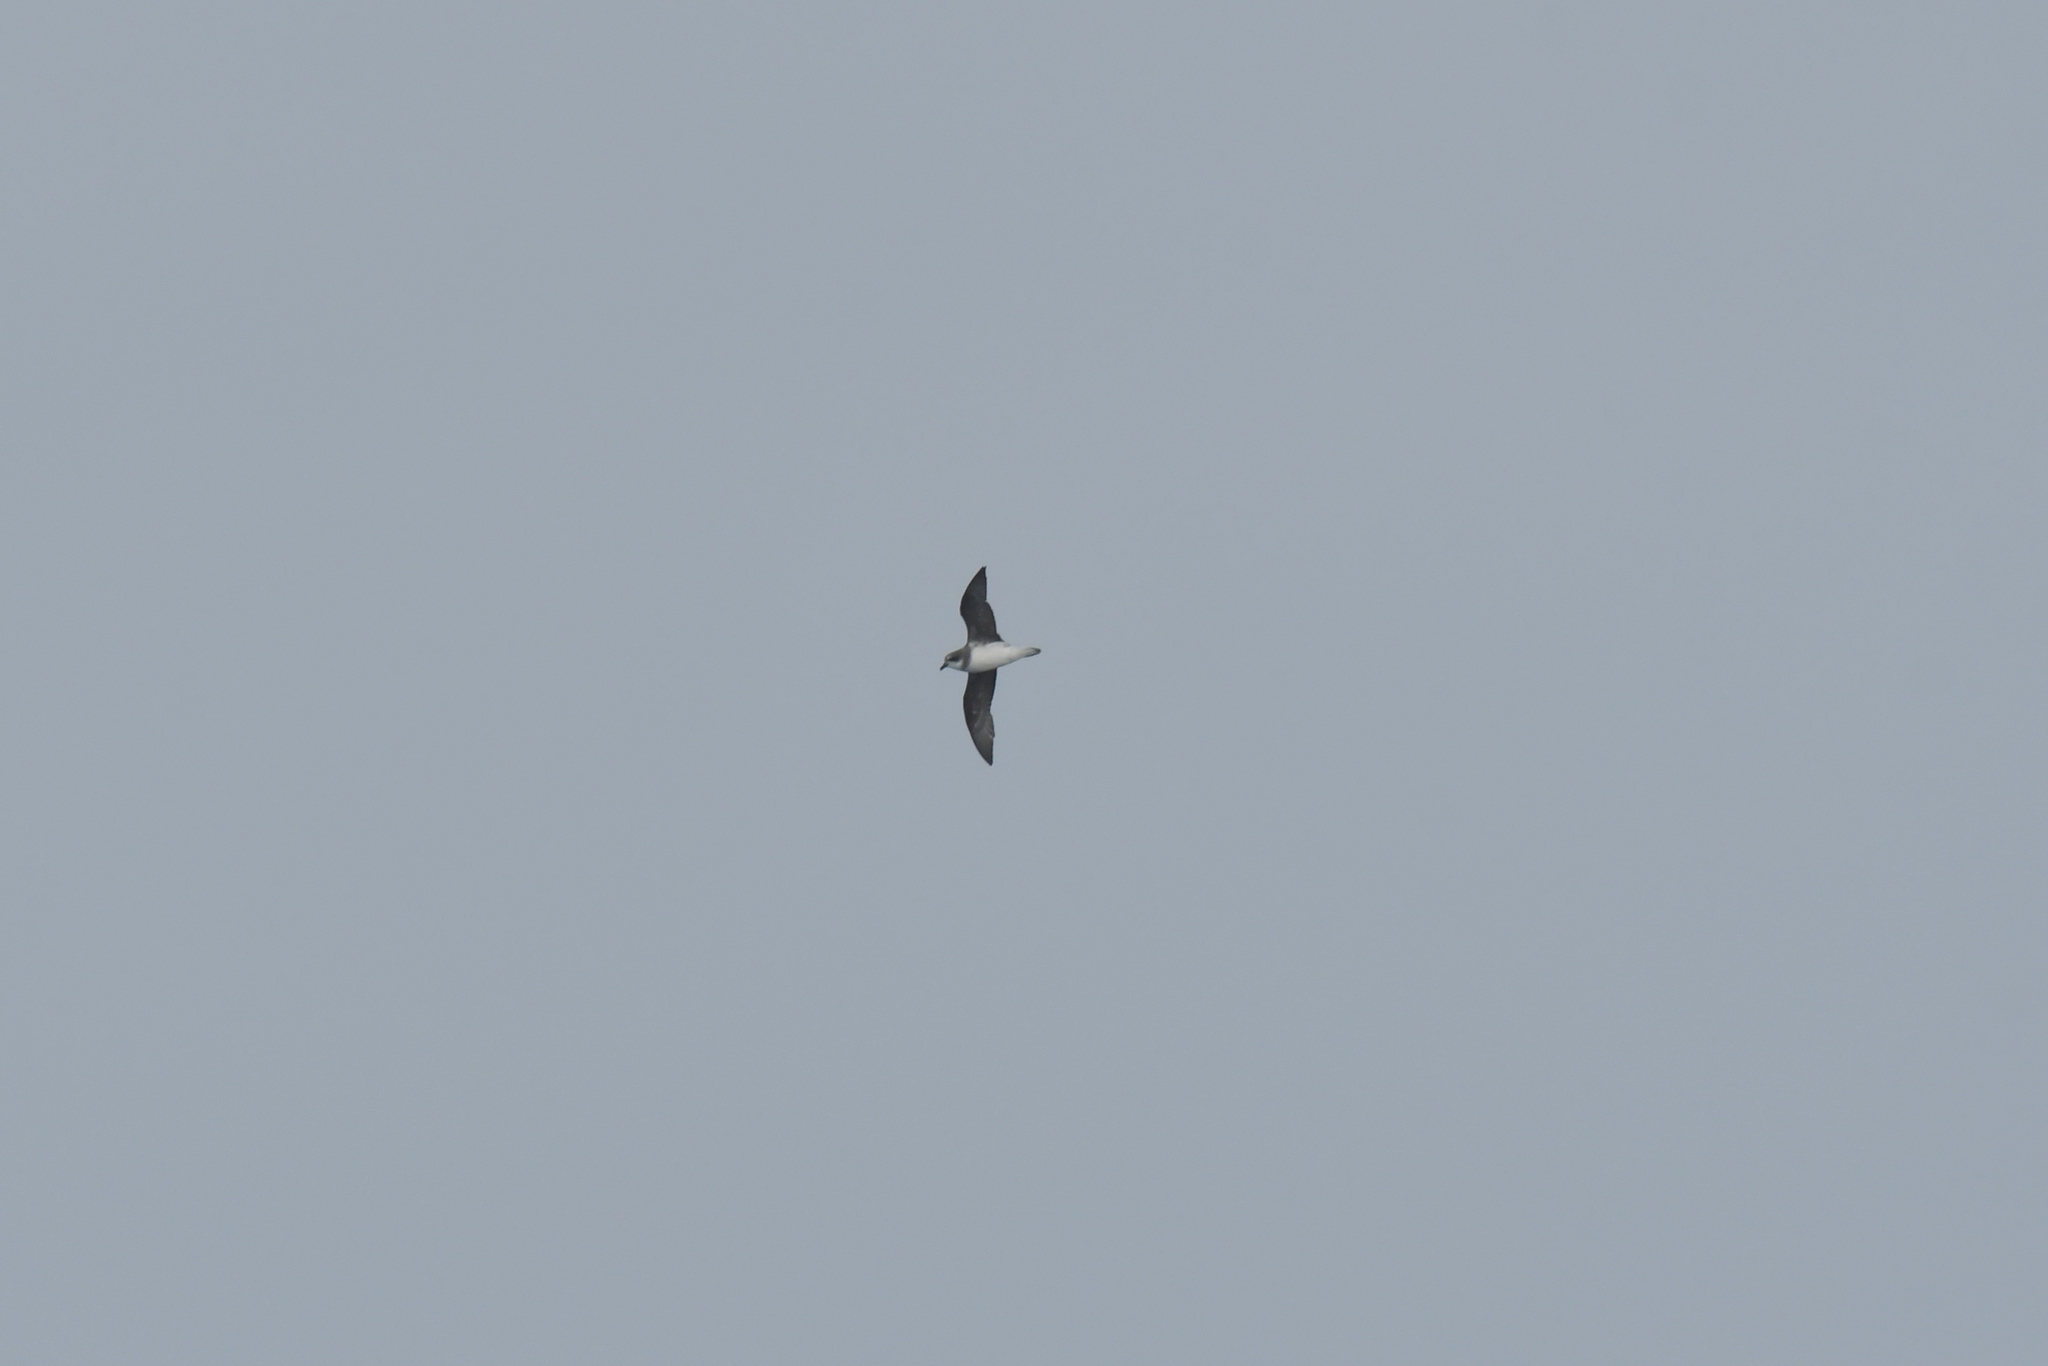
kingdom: Animalia
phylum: Chordata
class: Aves
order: Procellariiformes
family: Procellariidae
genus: Pterodroma
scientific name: Pterodroma mollis
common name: Soft-plumaged petrel
